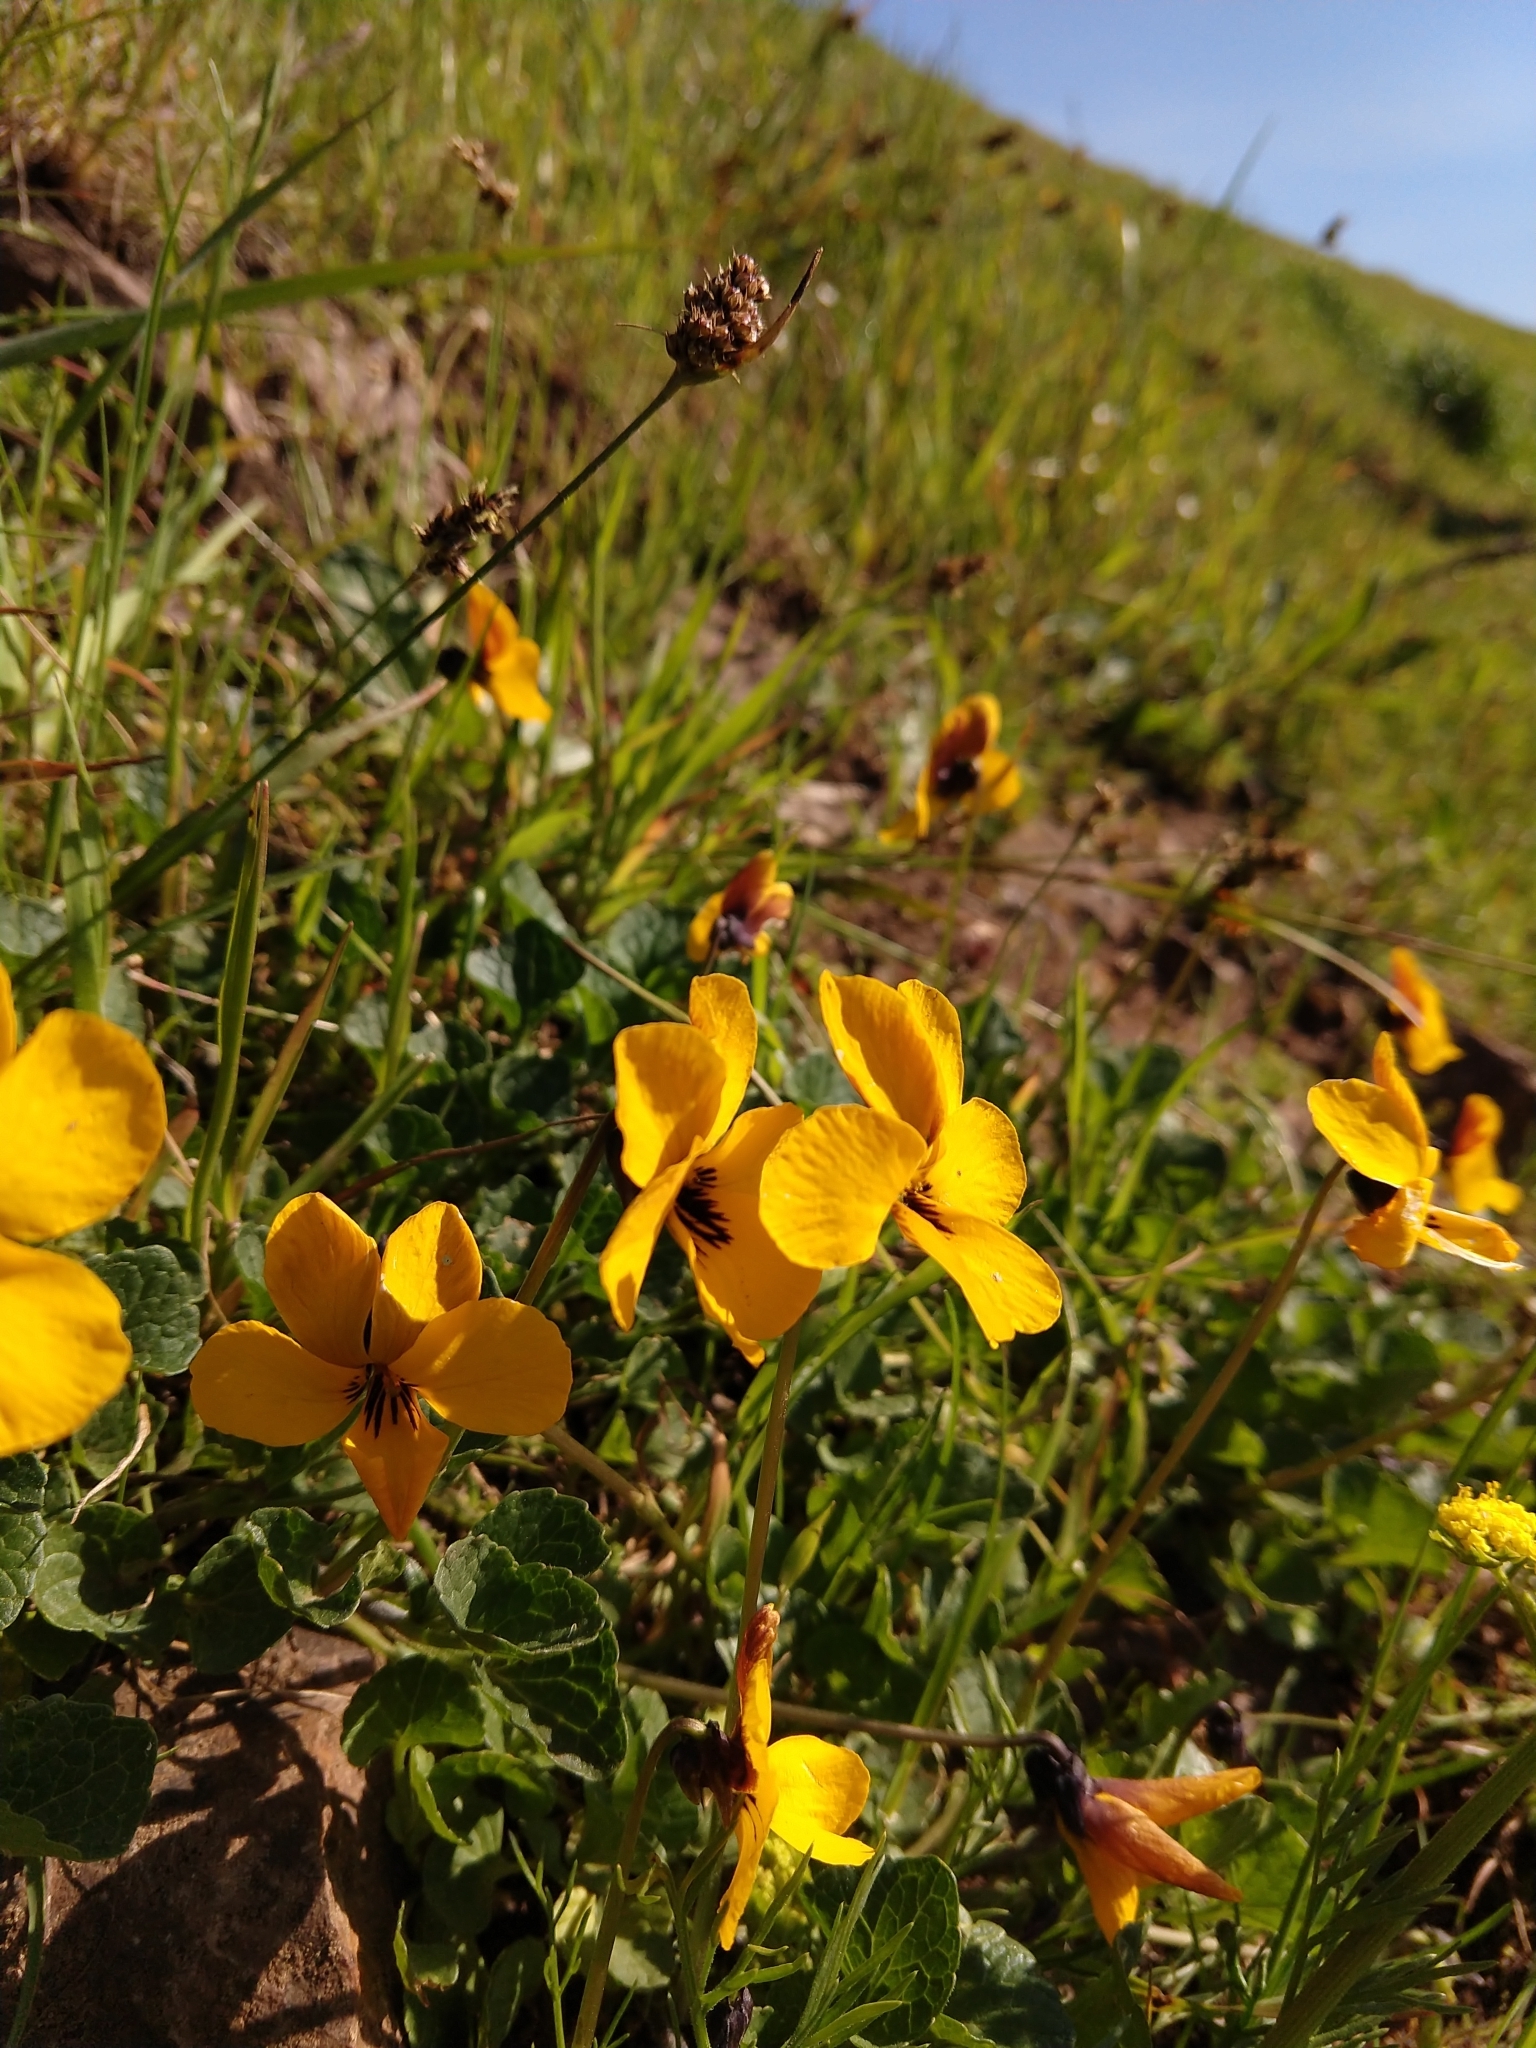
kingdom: Plantae
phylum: Tracheophyta
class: Magnoliopsida
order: Malpighiales
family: Violaceae
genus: Viola
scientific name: Viola pedunculata
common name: California golden violet
